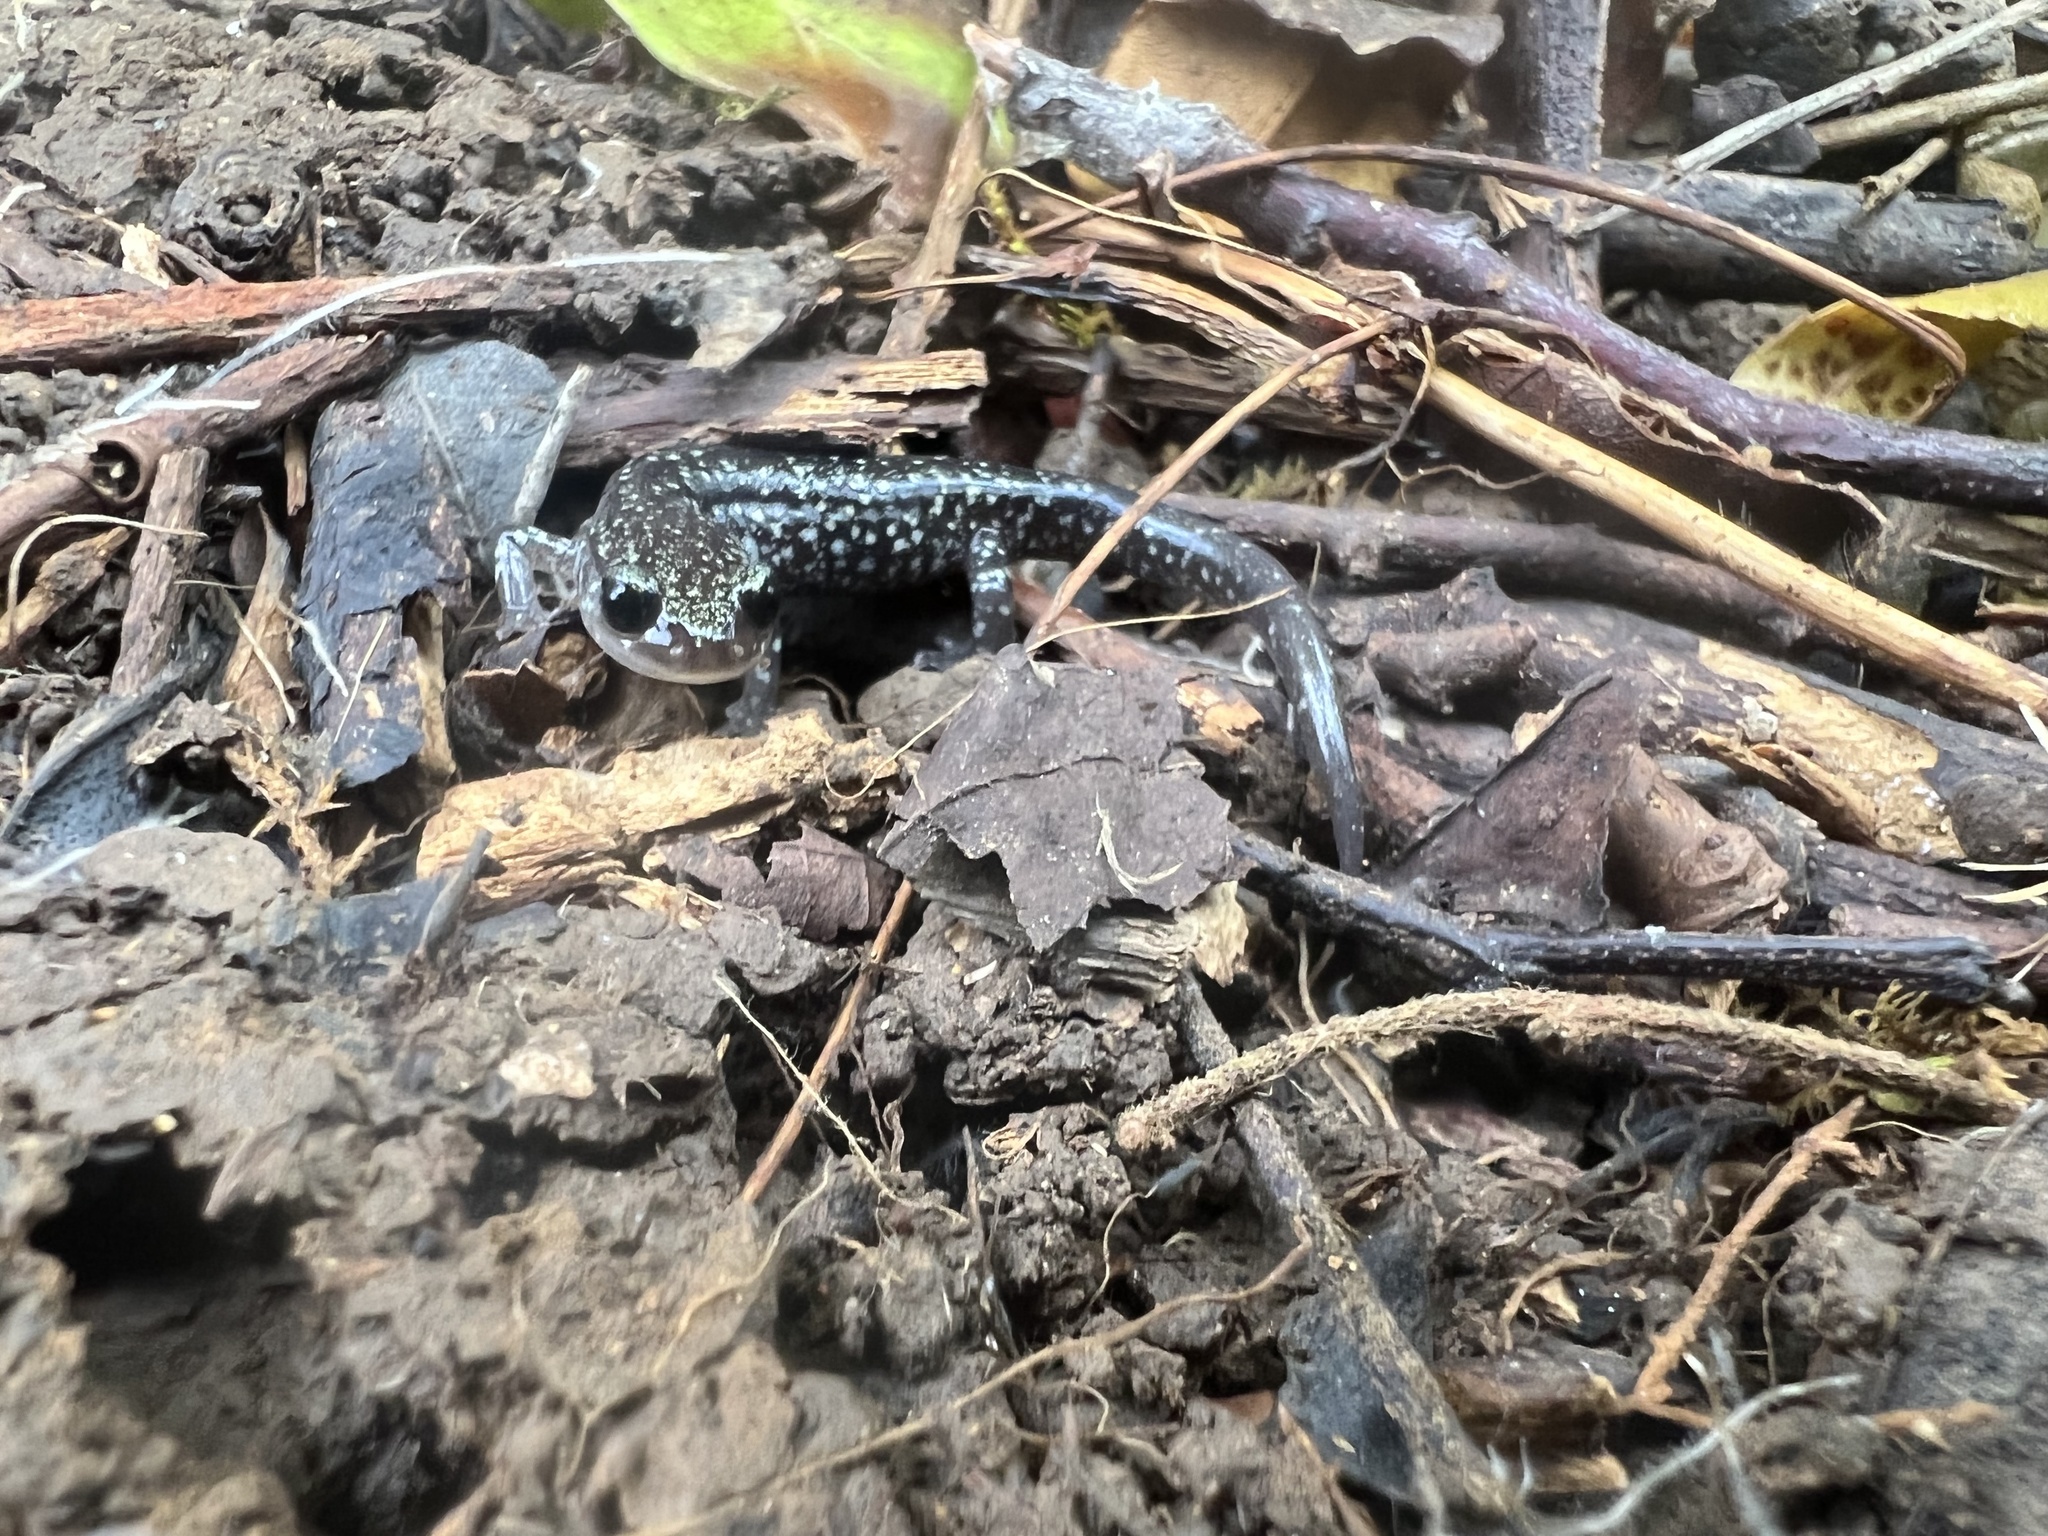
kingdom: Animalia
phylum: Chordata
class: Amphibia
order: Caudata
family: Plethodontidae
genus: Plethodon
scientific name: Plethodon glutinosus
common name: Northern slimy salamander
